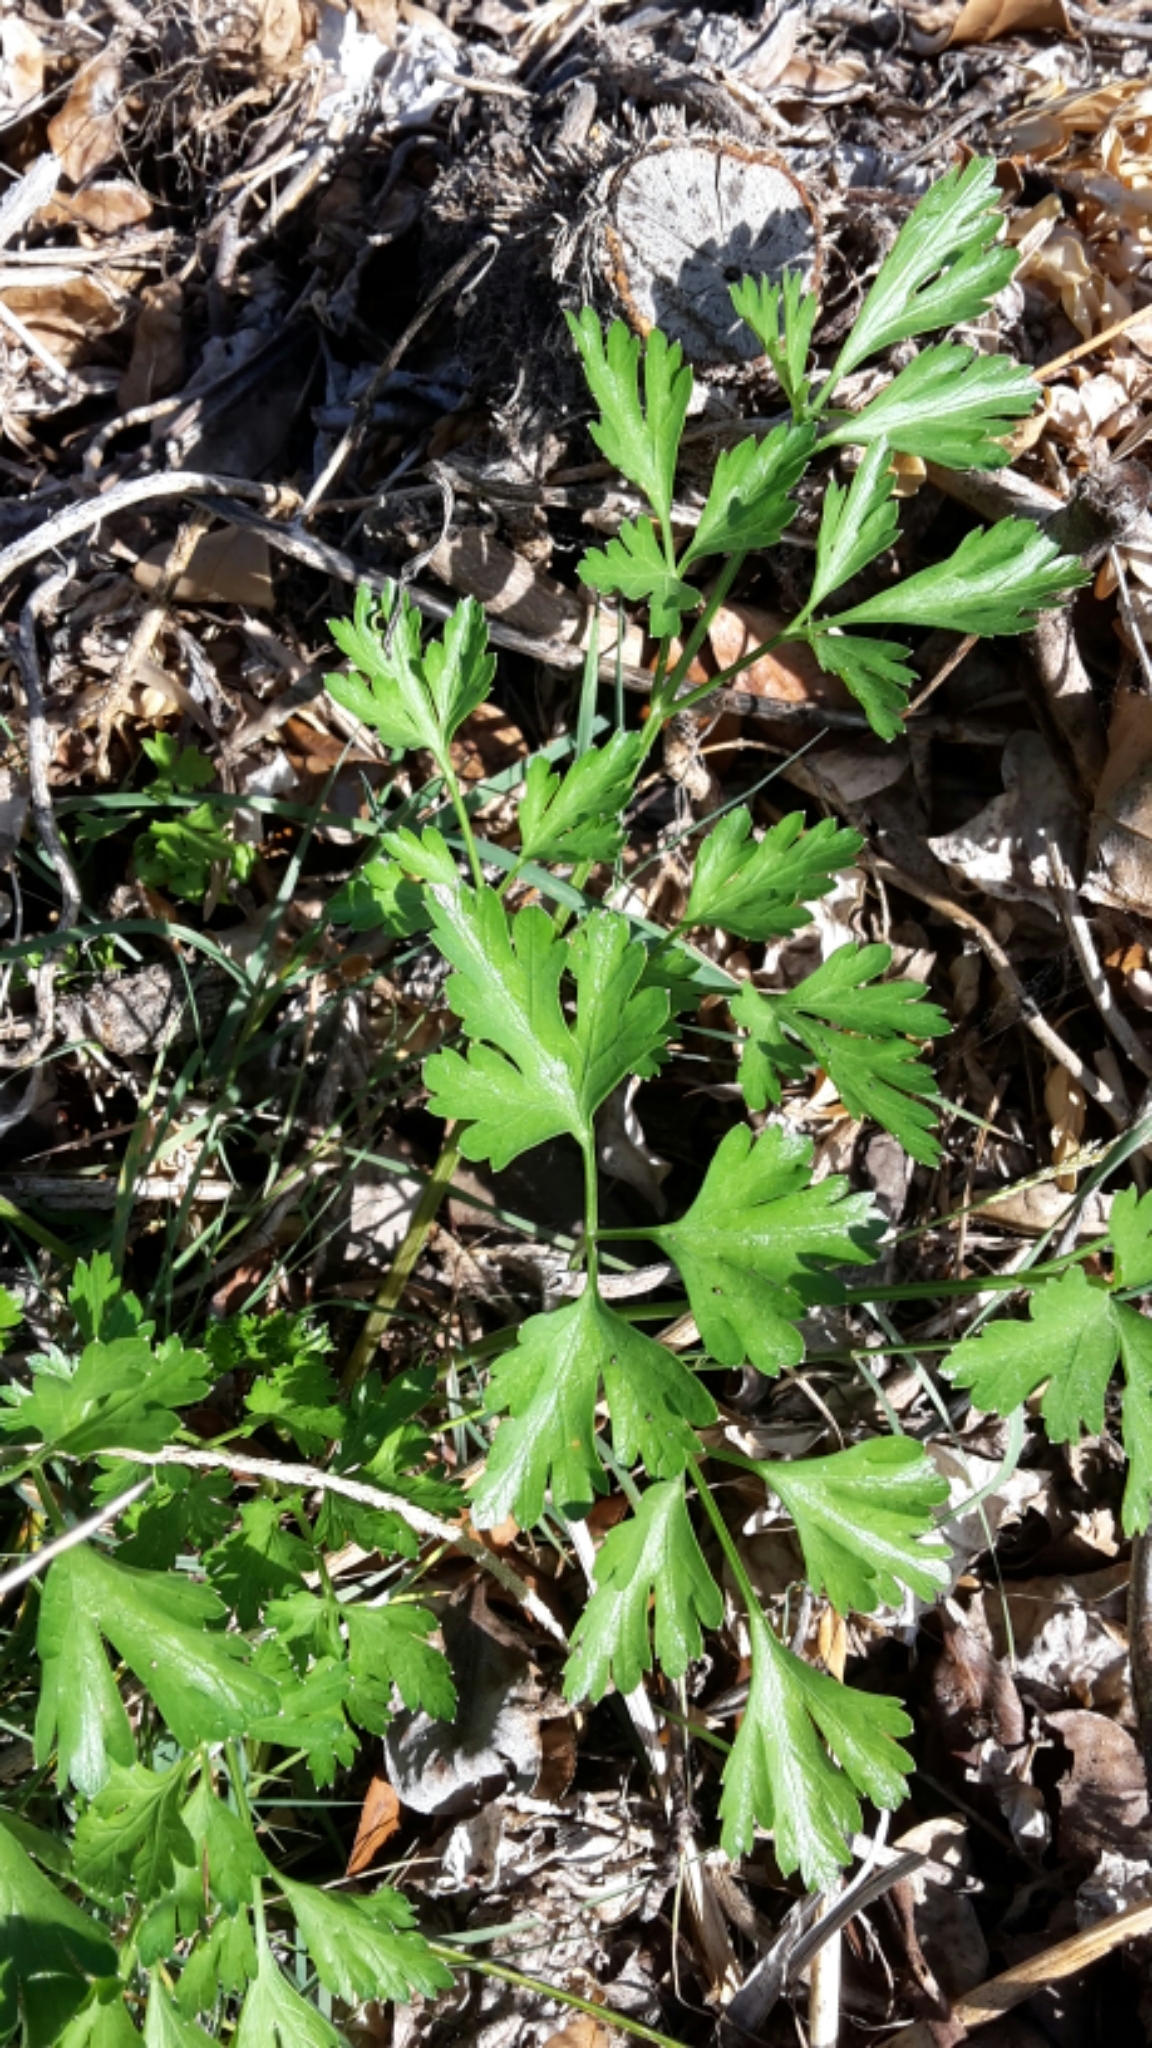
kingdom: Plantae
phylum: Tracheophyta
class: Magnoliopsida
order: Apiales
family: Apiaceae
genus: Petroselinum
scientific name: Petroselinum crispum
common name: Parsley
